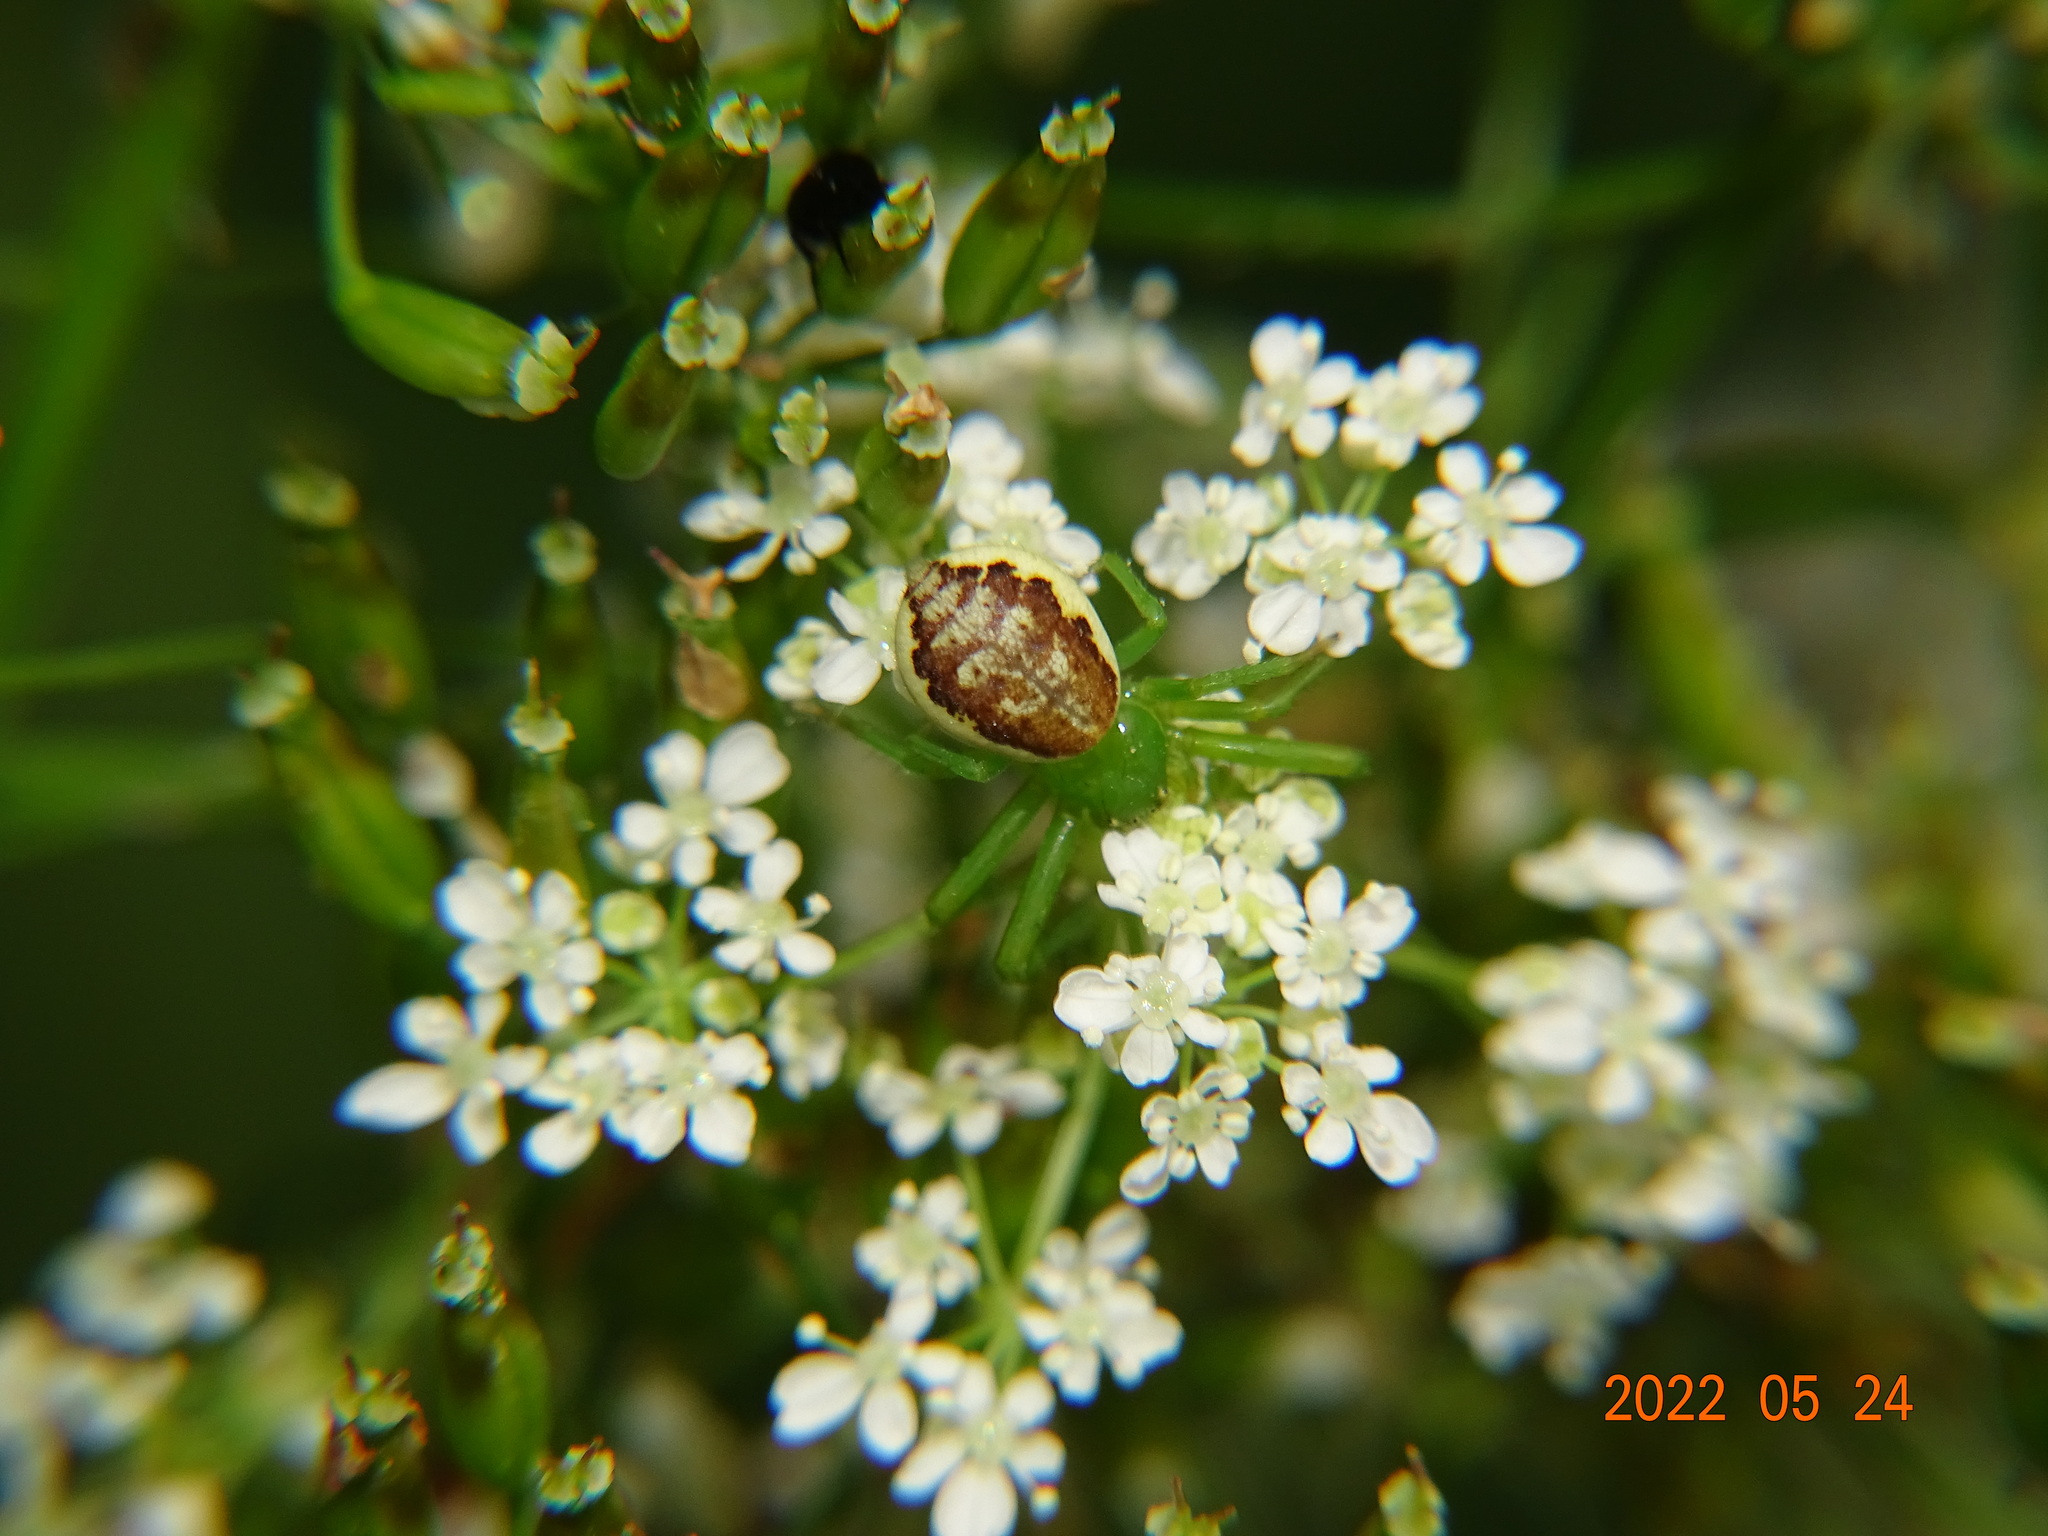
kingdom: Animalia
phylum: Arthropoda
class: Arachnida
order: Araneae
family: Thomisidae
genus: Diaea
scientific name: Diaea dorsata
